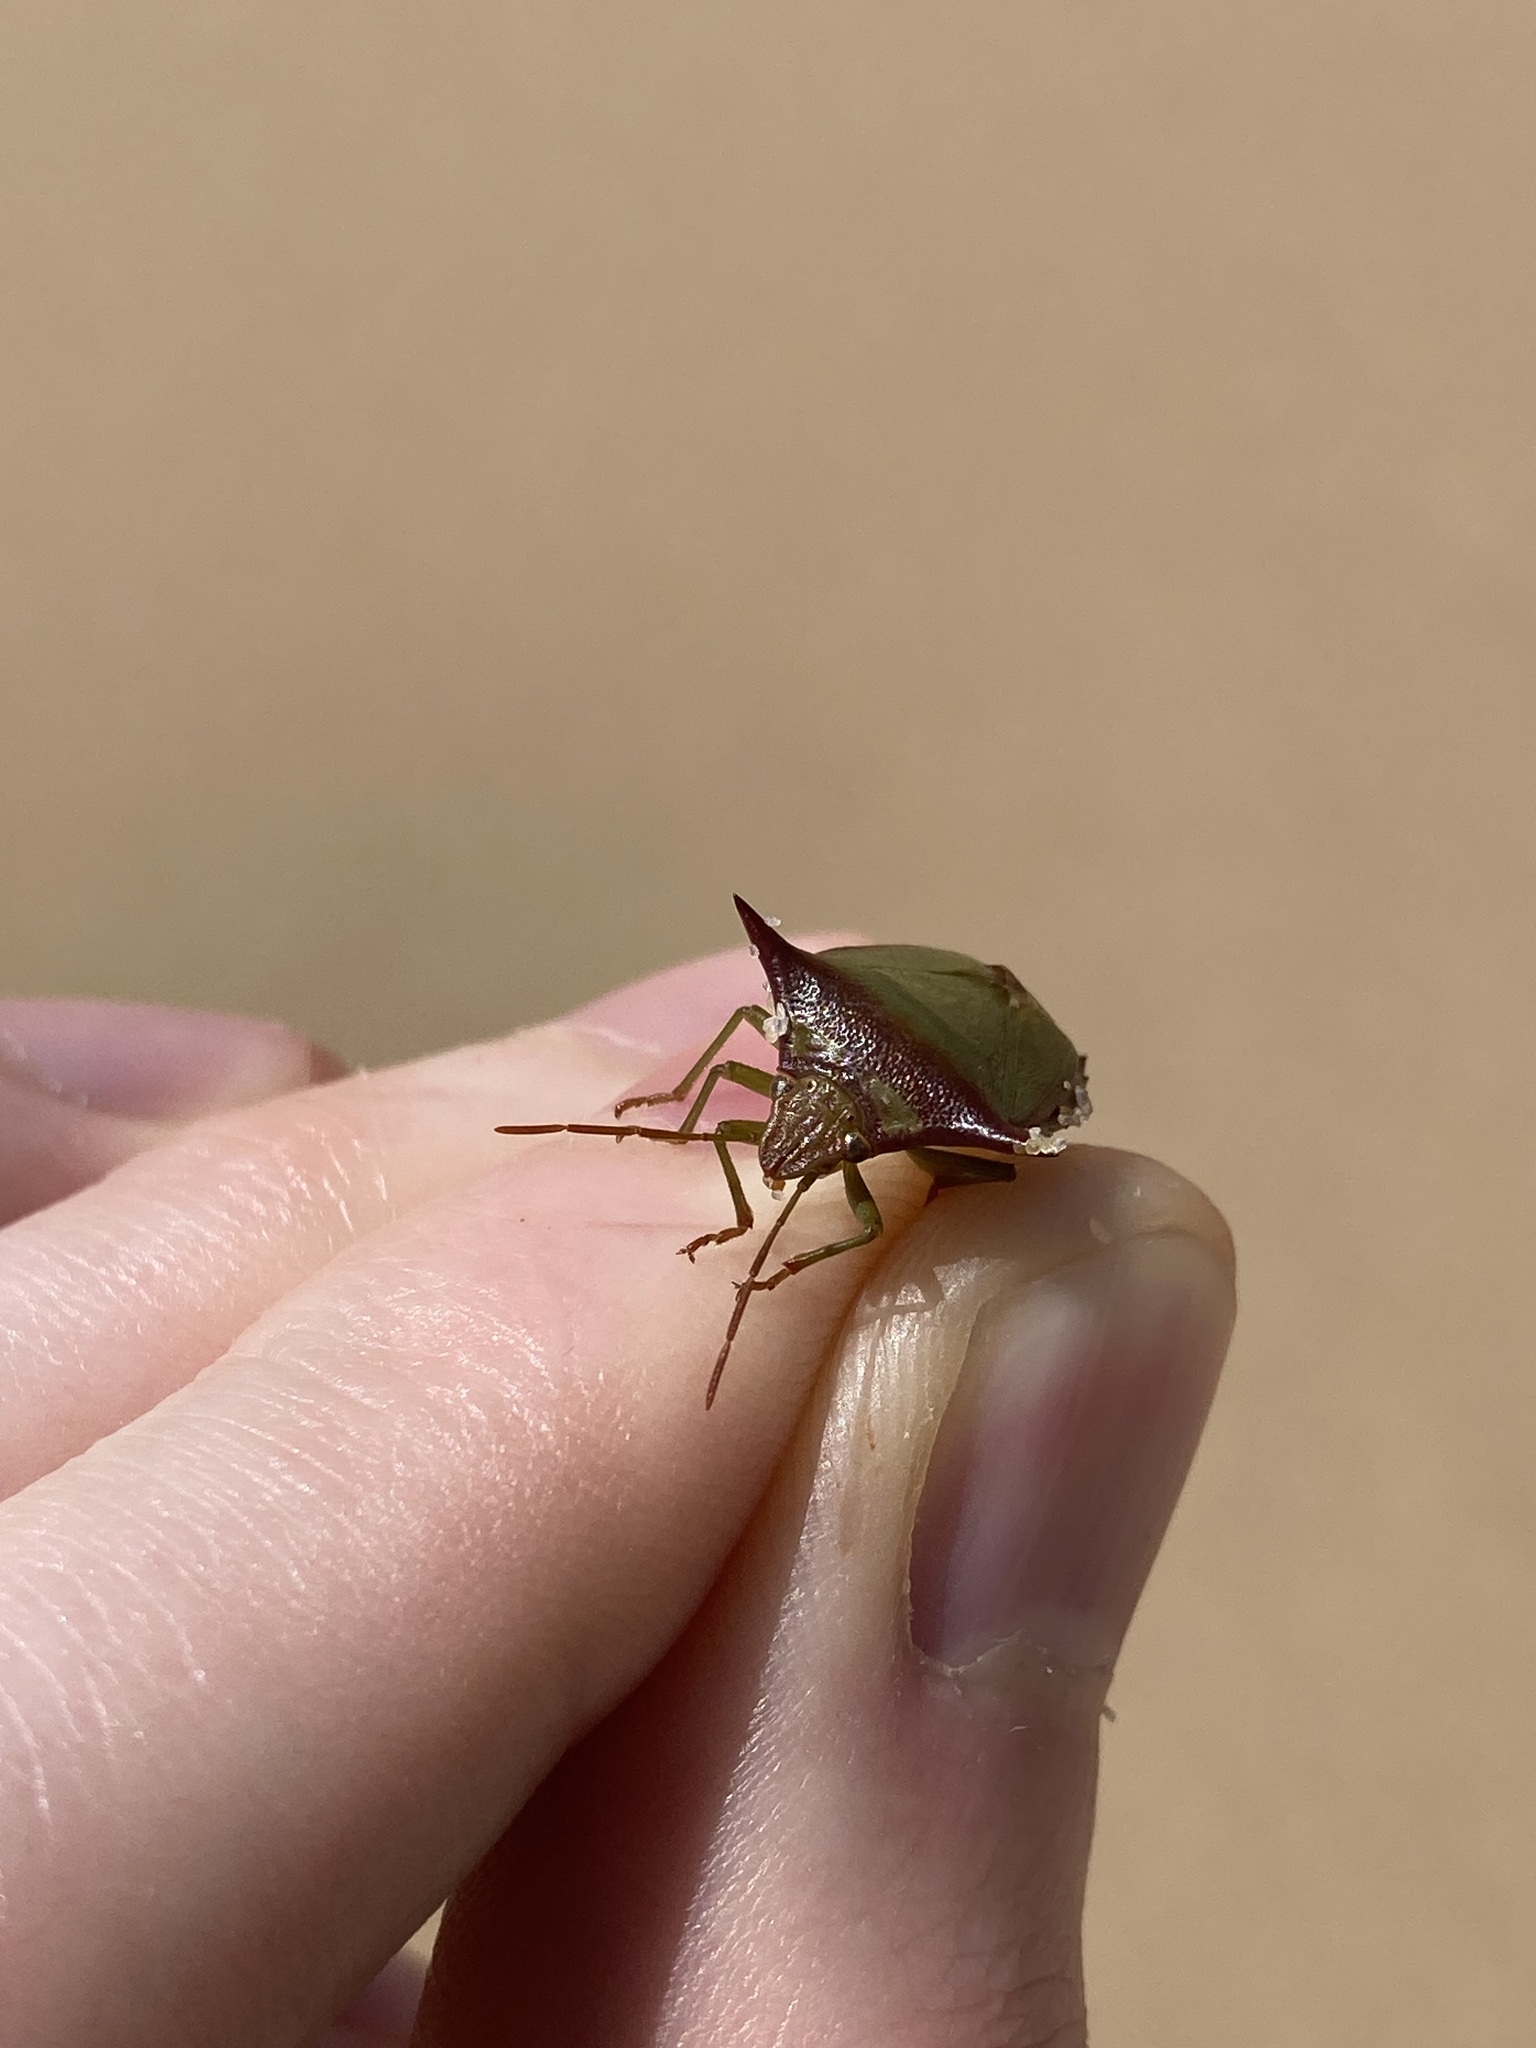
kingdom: Animalia
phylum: Arthropoda
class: Insecta
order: Hemiptera
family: Pentatomidae
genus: Avicenna
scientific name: Avicenna
